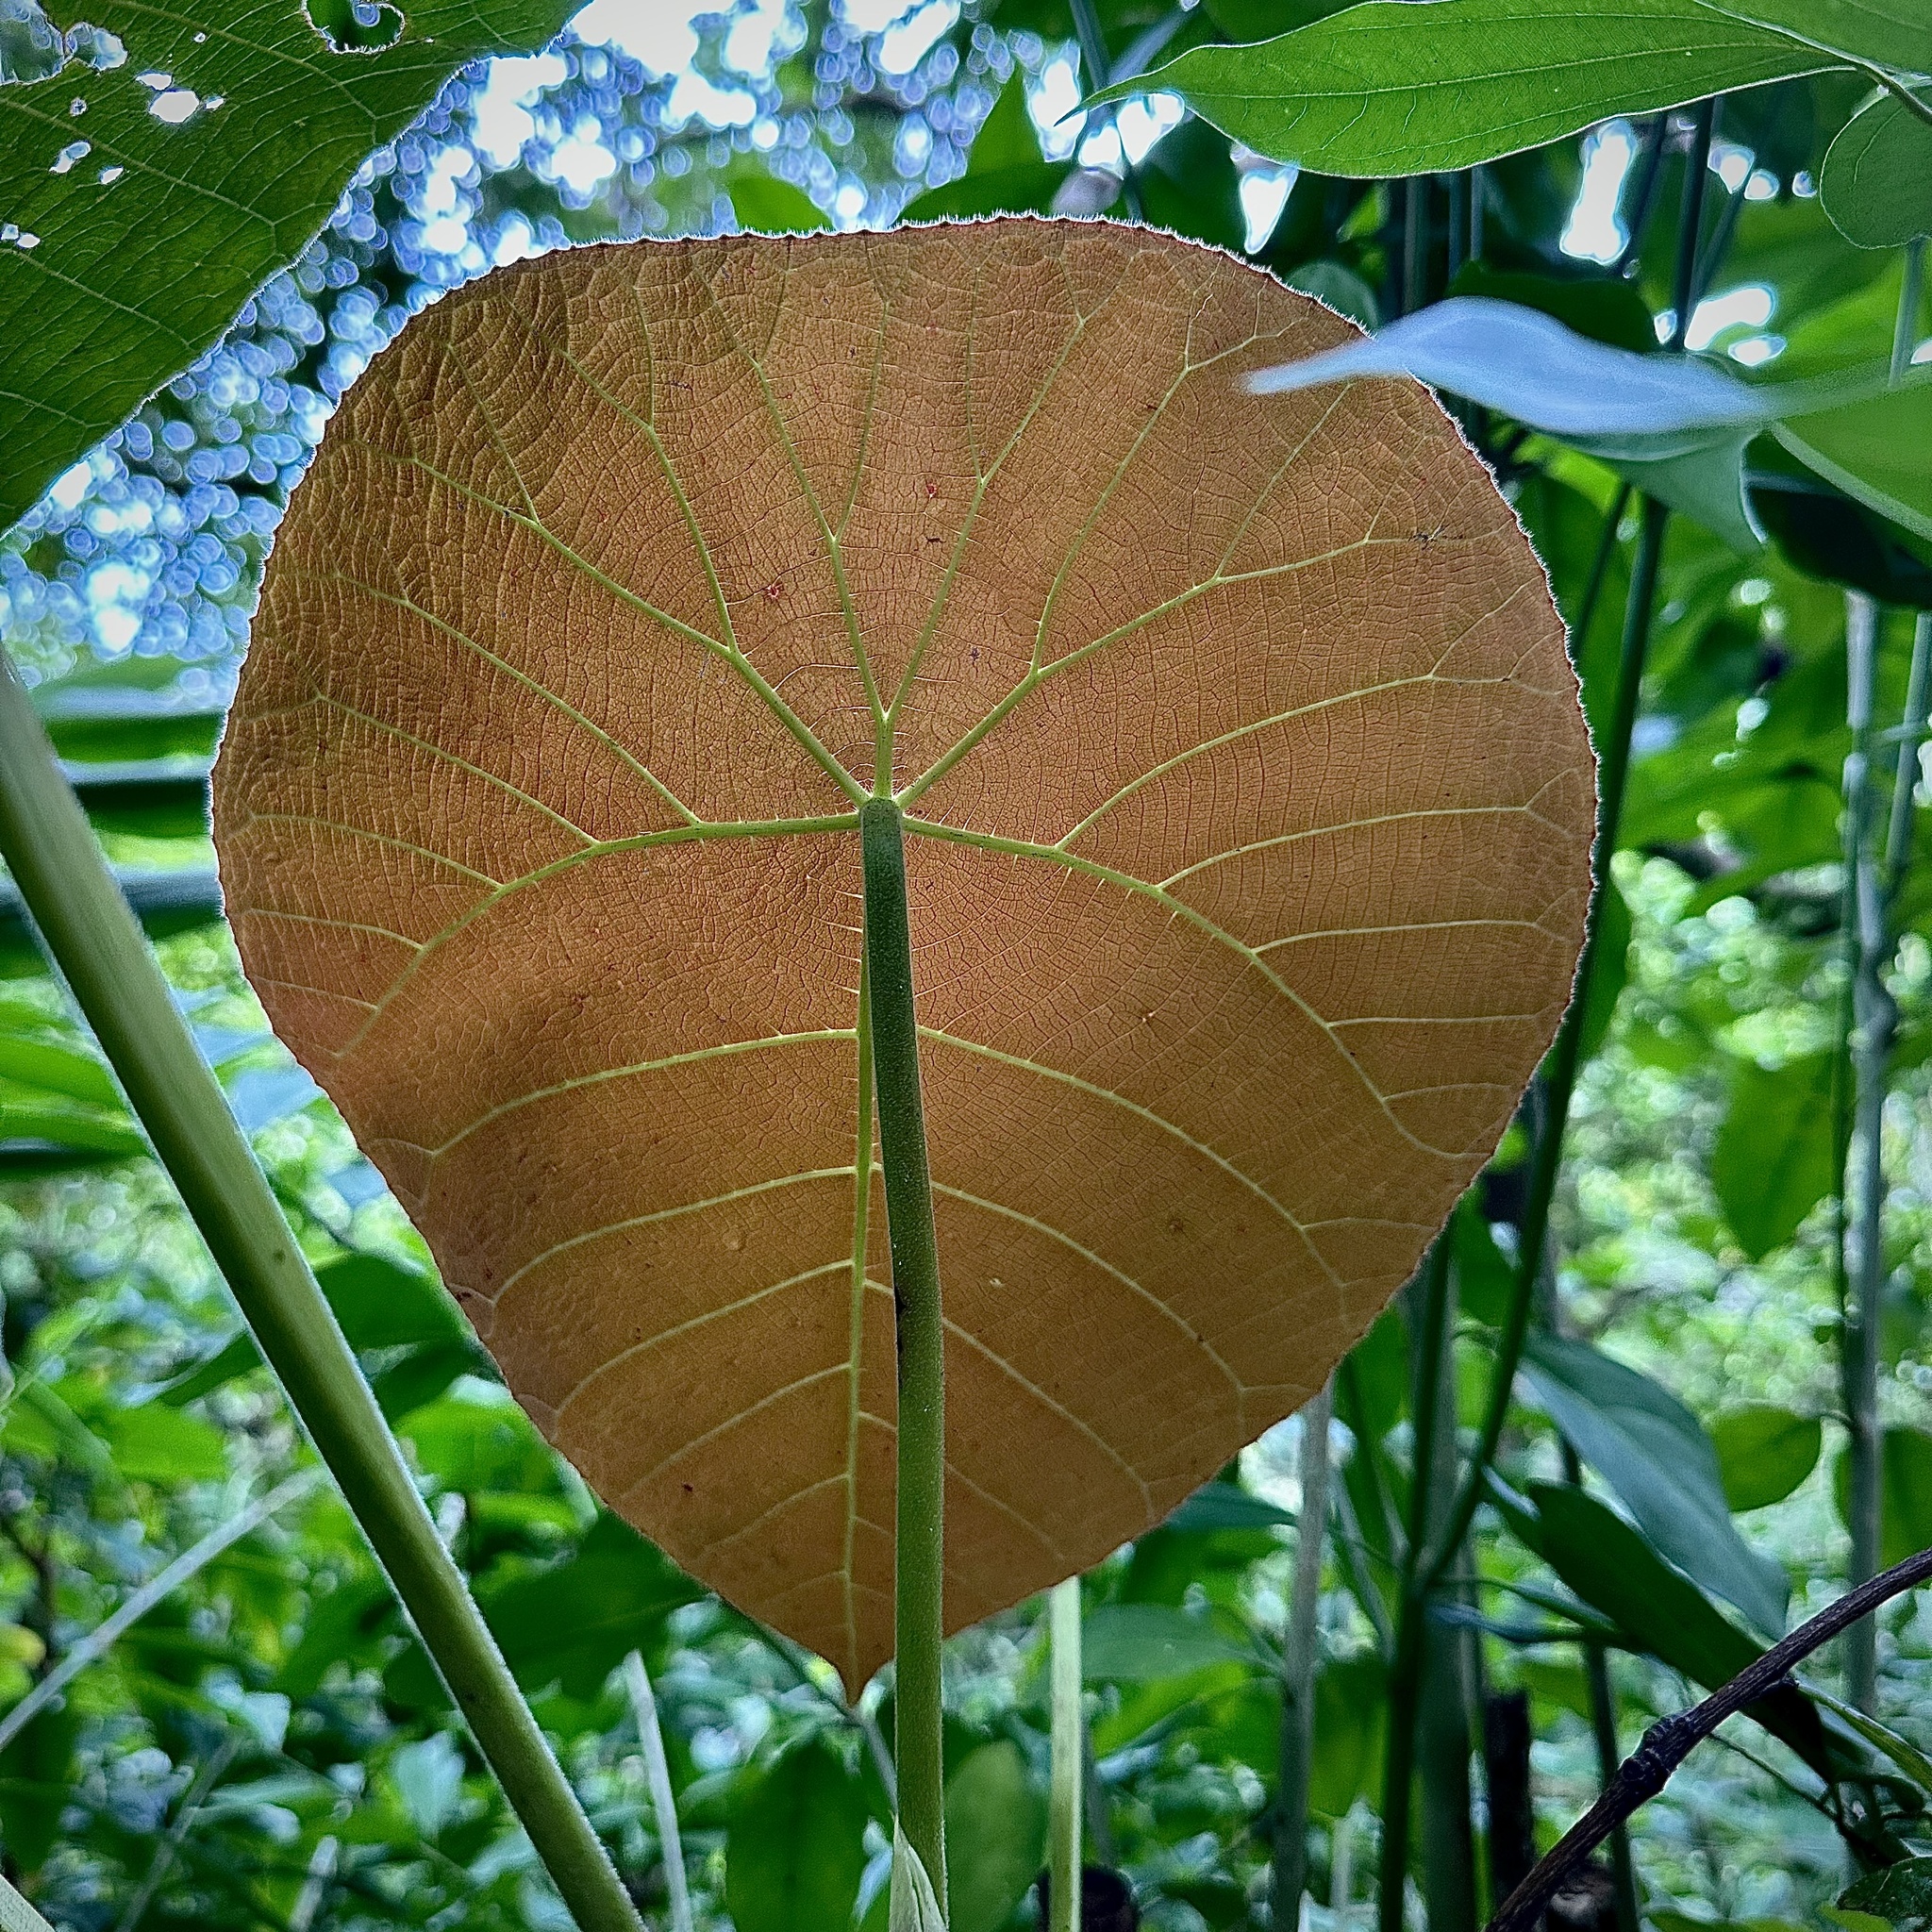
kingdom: Plantae
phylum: Tracheophyta
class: Magnoliopsida
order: Malpighiales
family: Euphorbiaceae
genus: Macaranga
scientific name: Macaranga mappa
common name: Pengua
